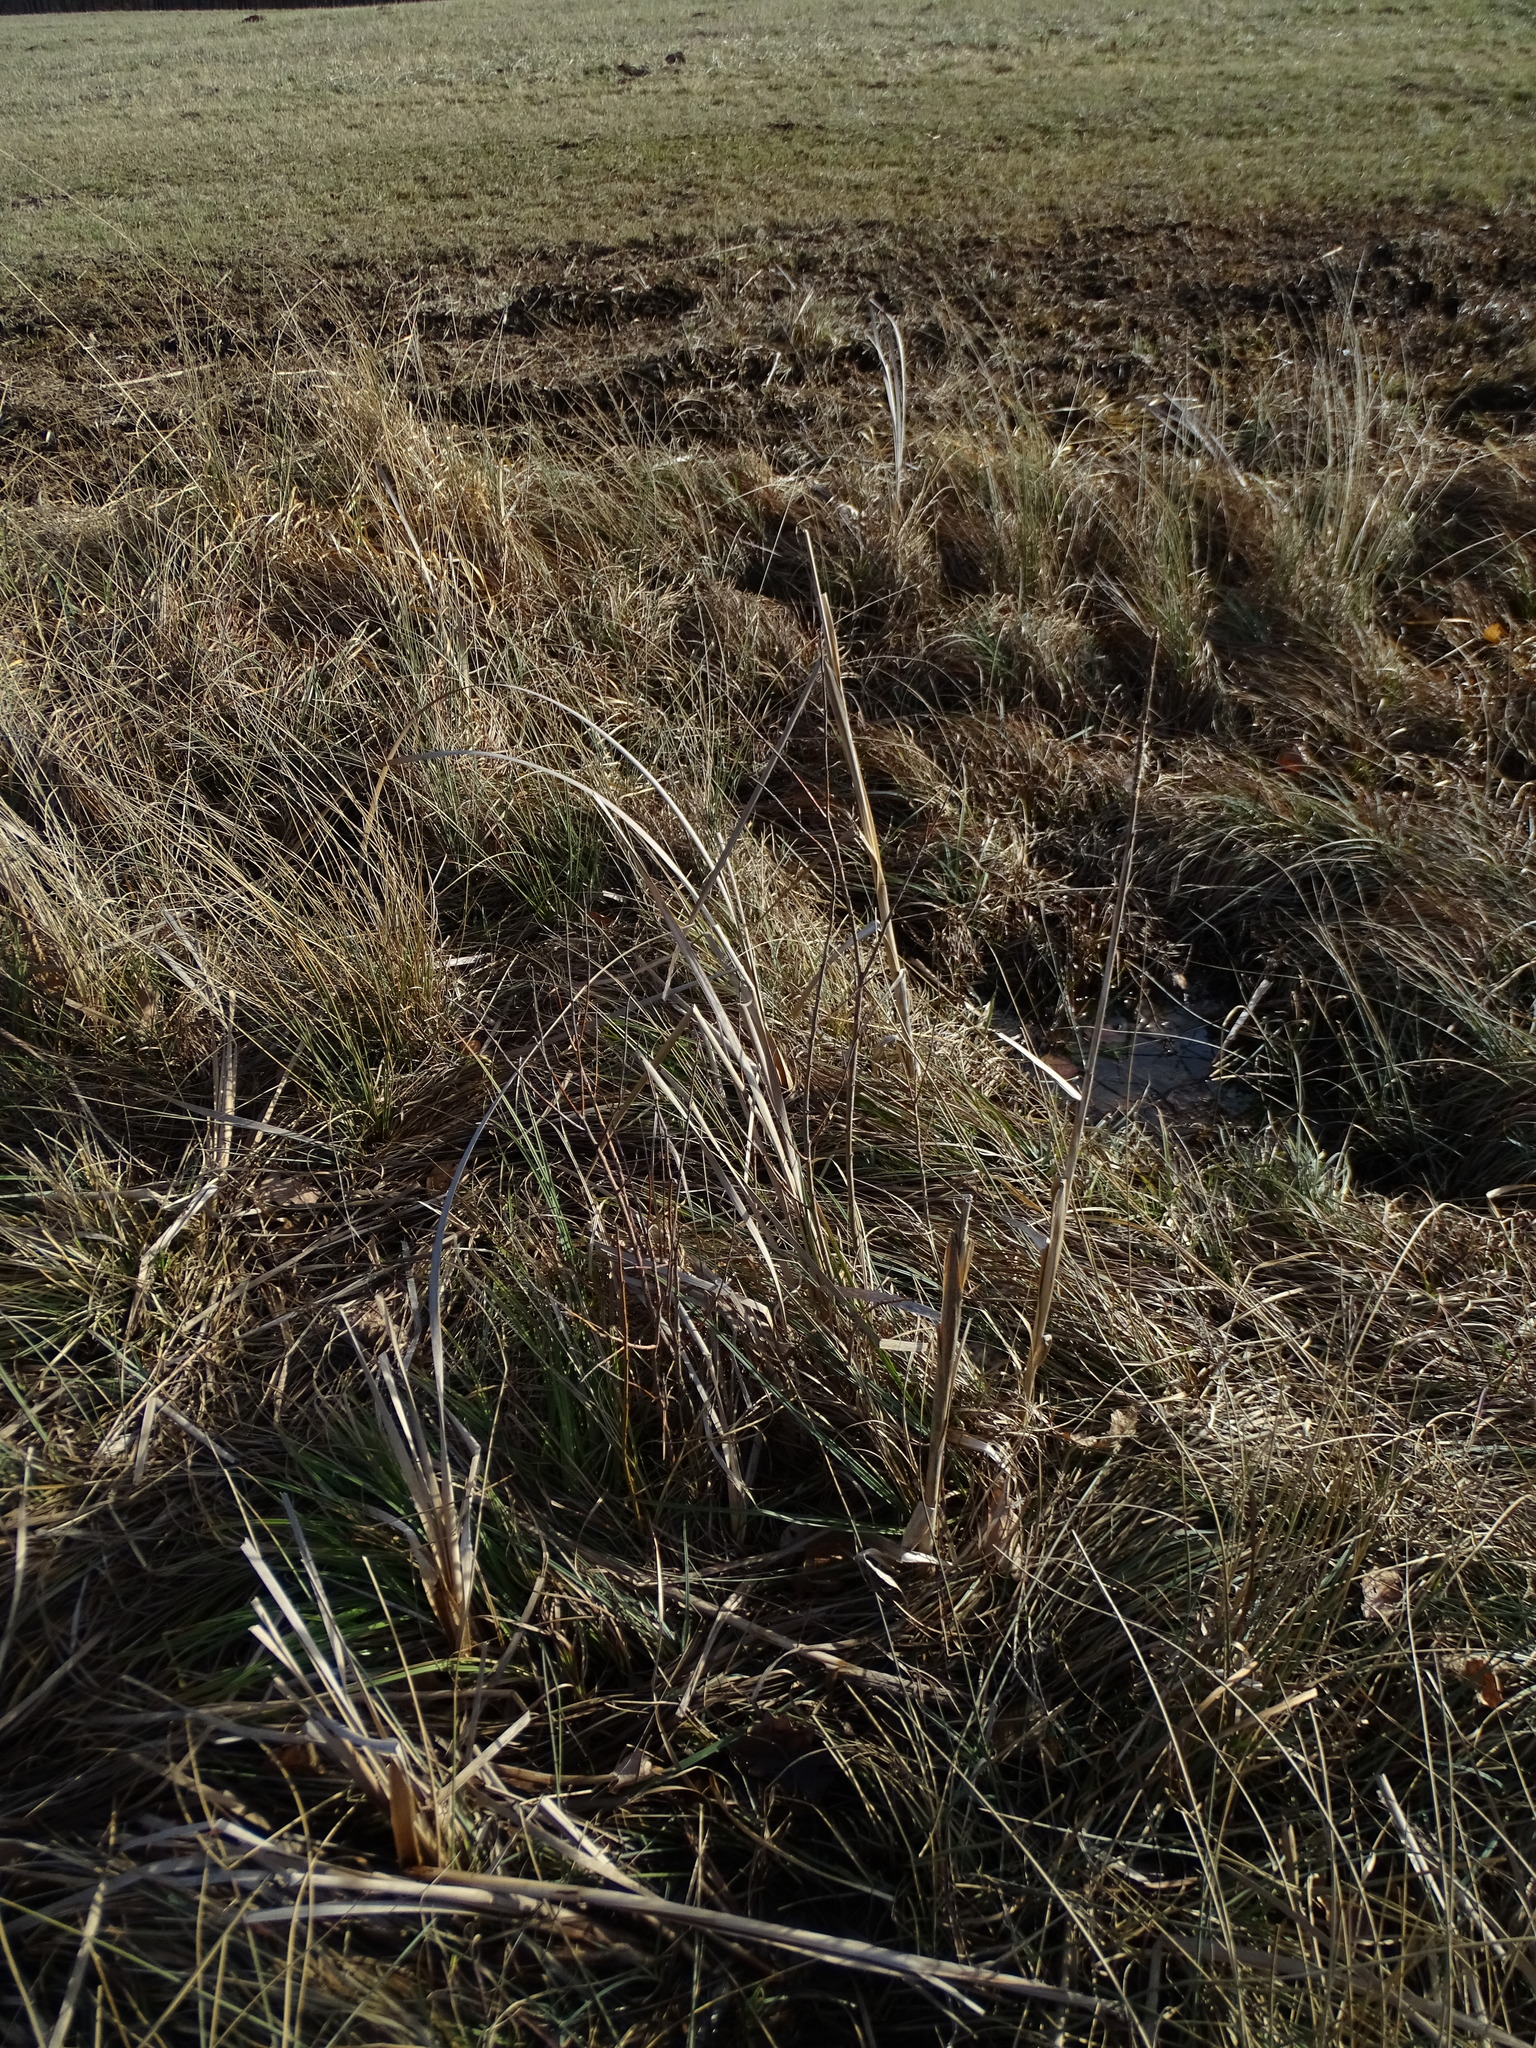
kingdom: Plantae
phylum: Tracheophyta
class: Liliopsida
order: Poales
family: Typhaceae
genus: Typha
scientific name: Typha shuttleworthii
